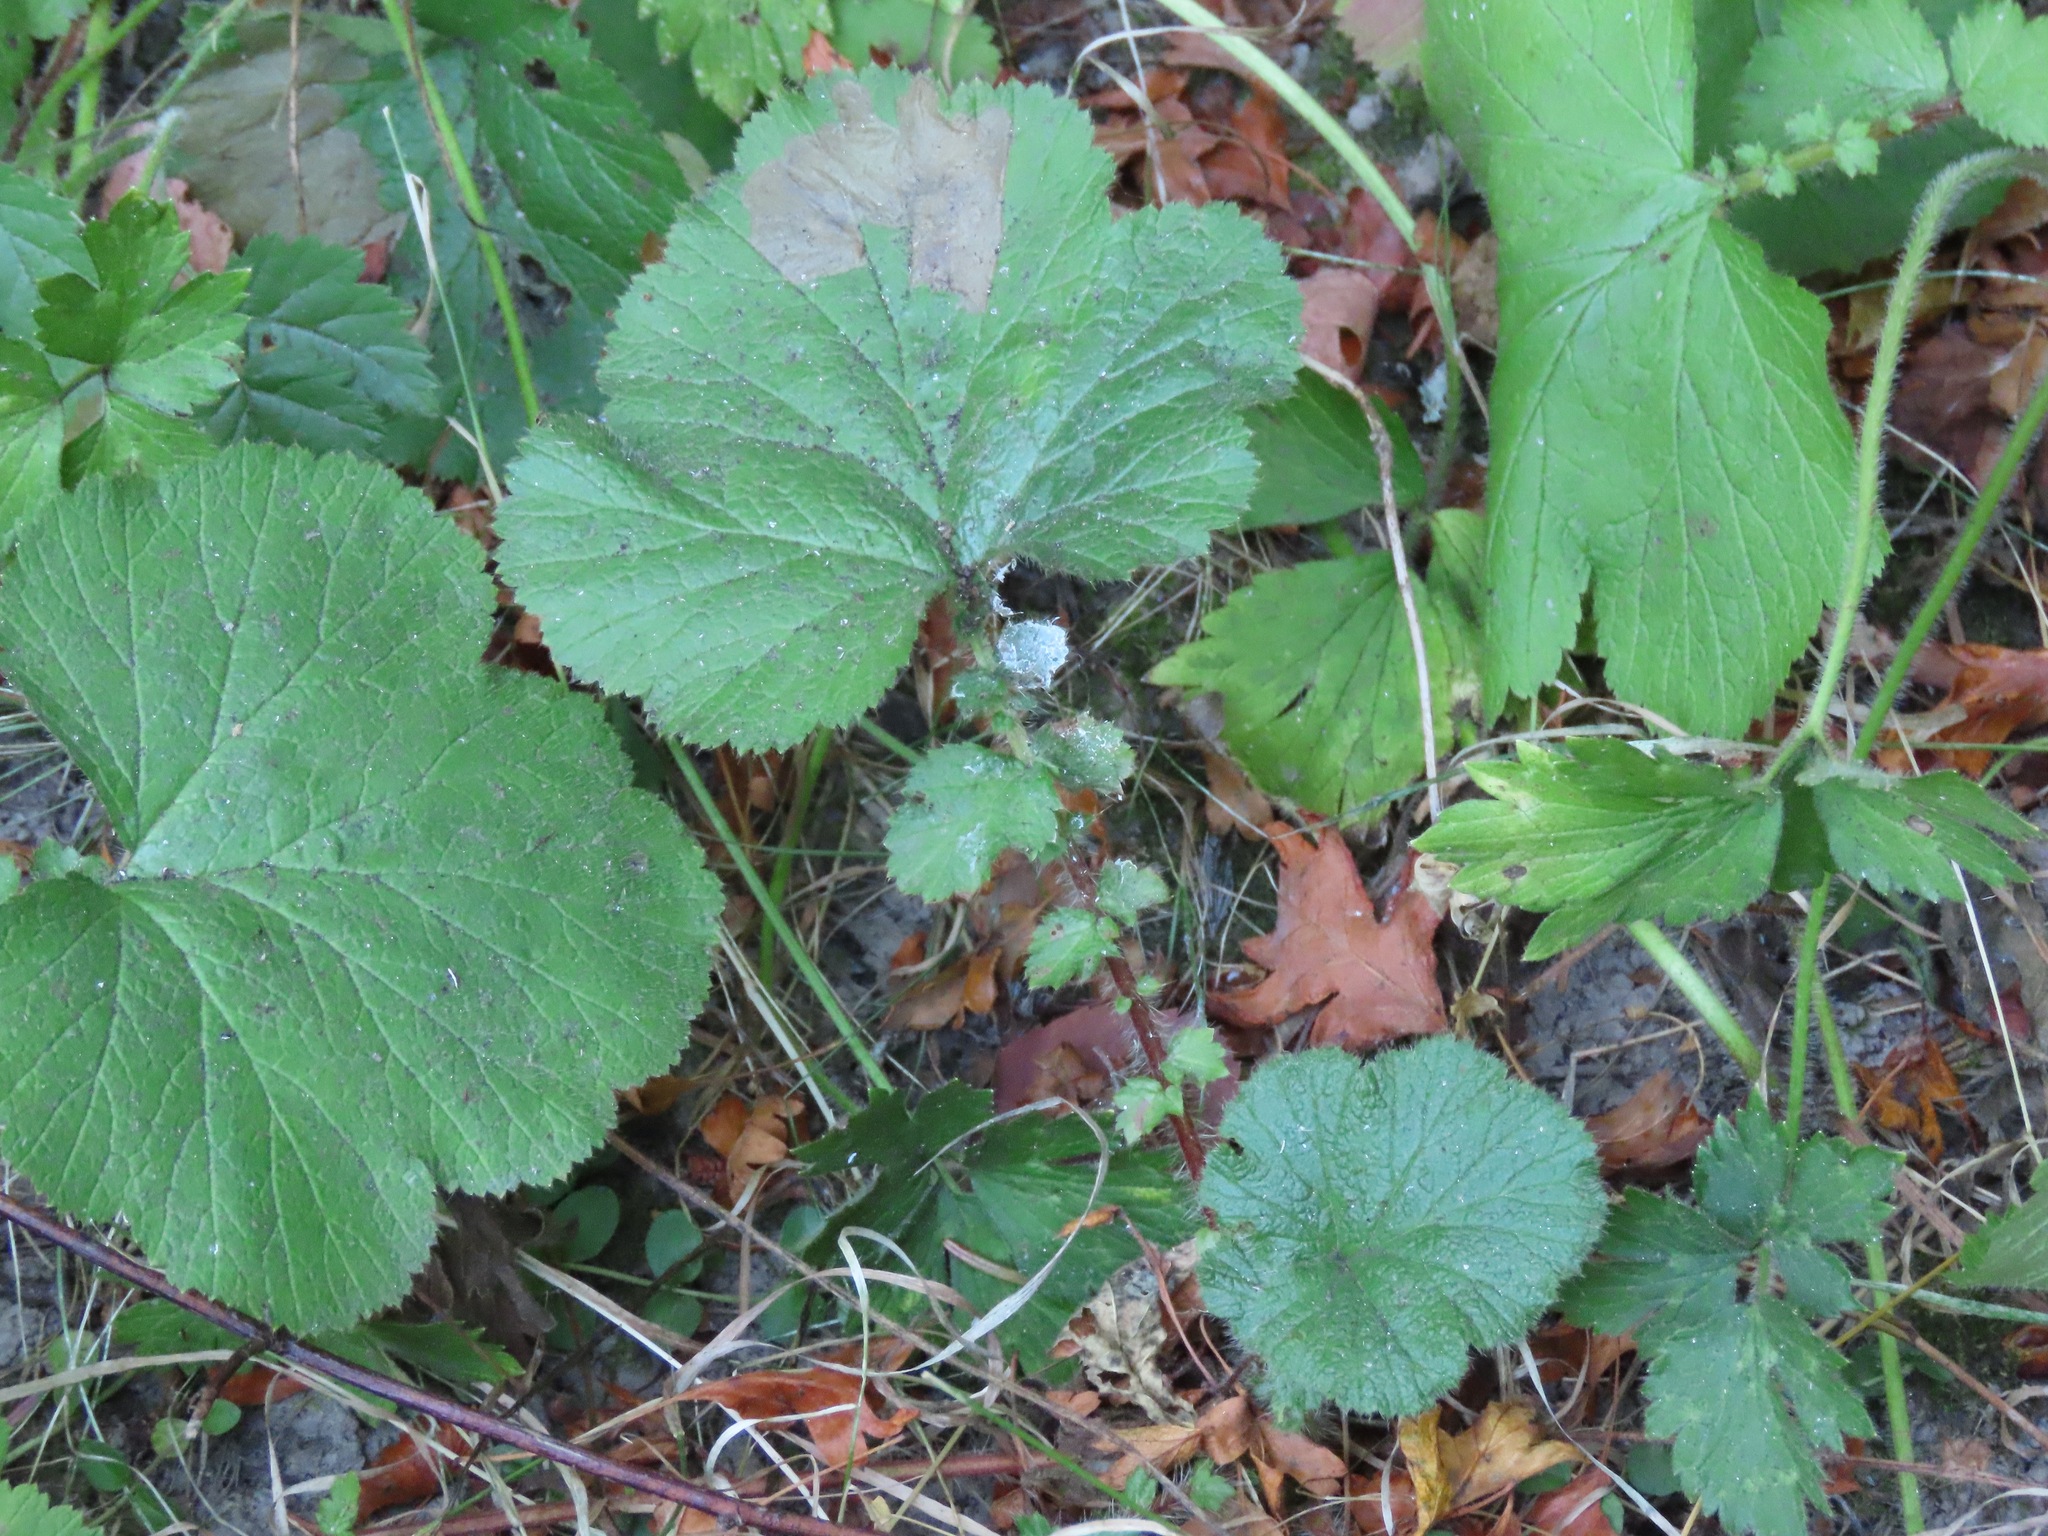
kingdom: Plantae
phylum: Tracheophyta
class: Magnoliopsida
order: Rosales
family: Rosaceae
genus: Geum
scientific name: Geum macrophyllum
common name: Large-leaved avens
